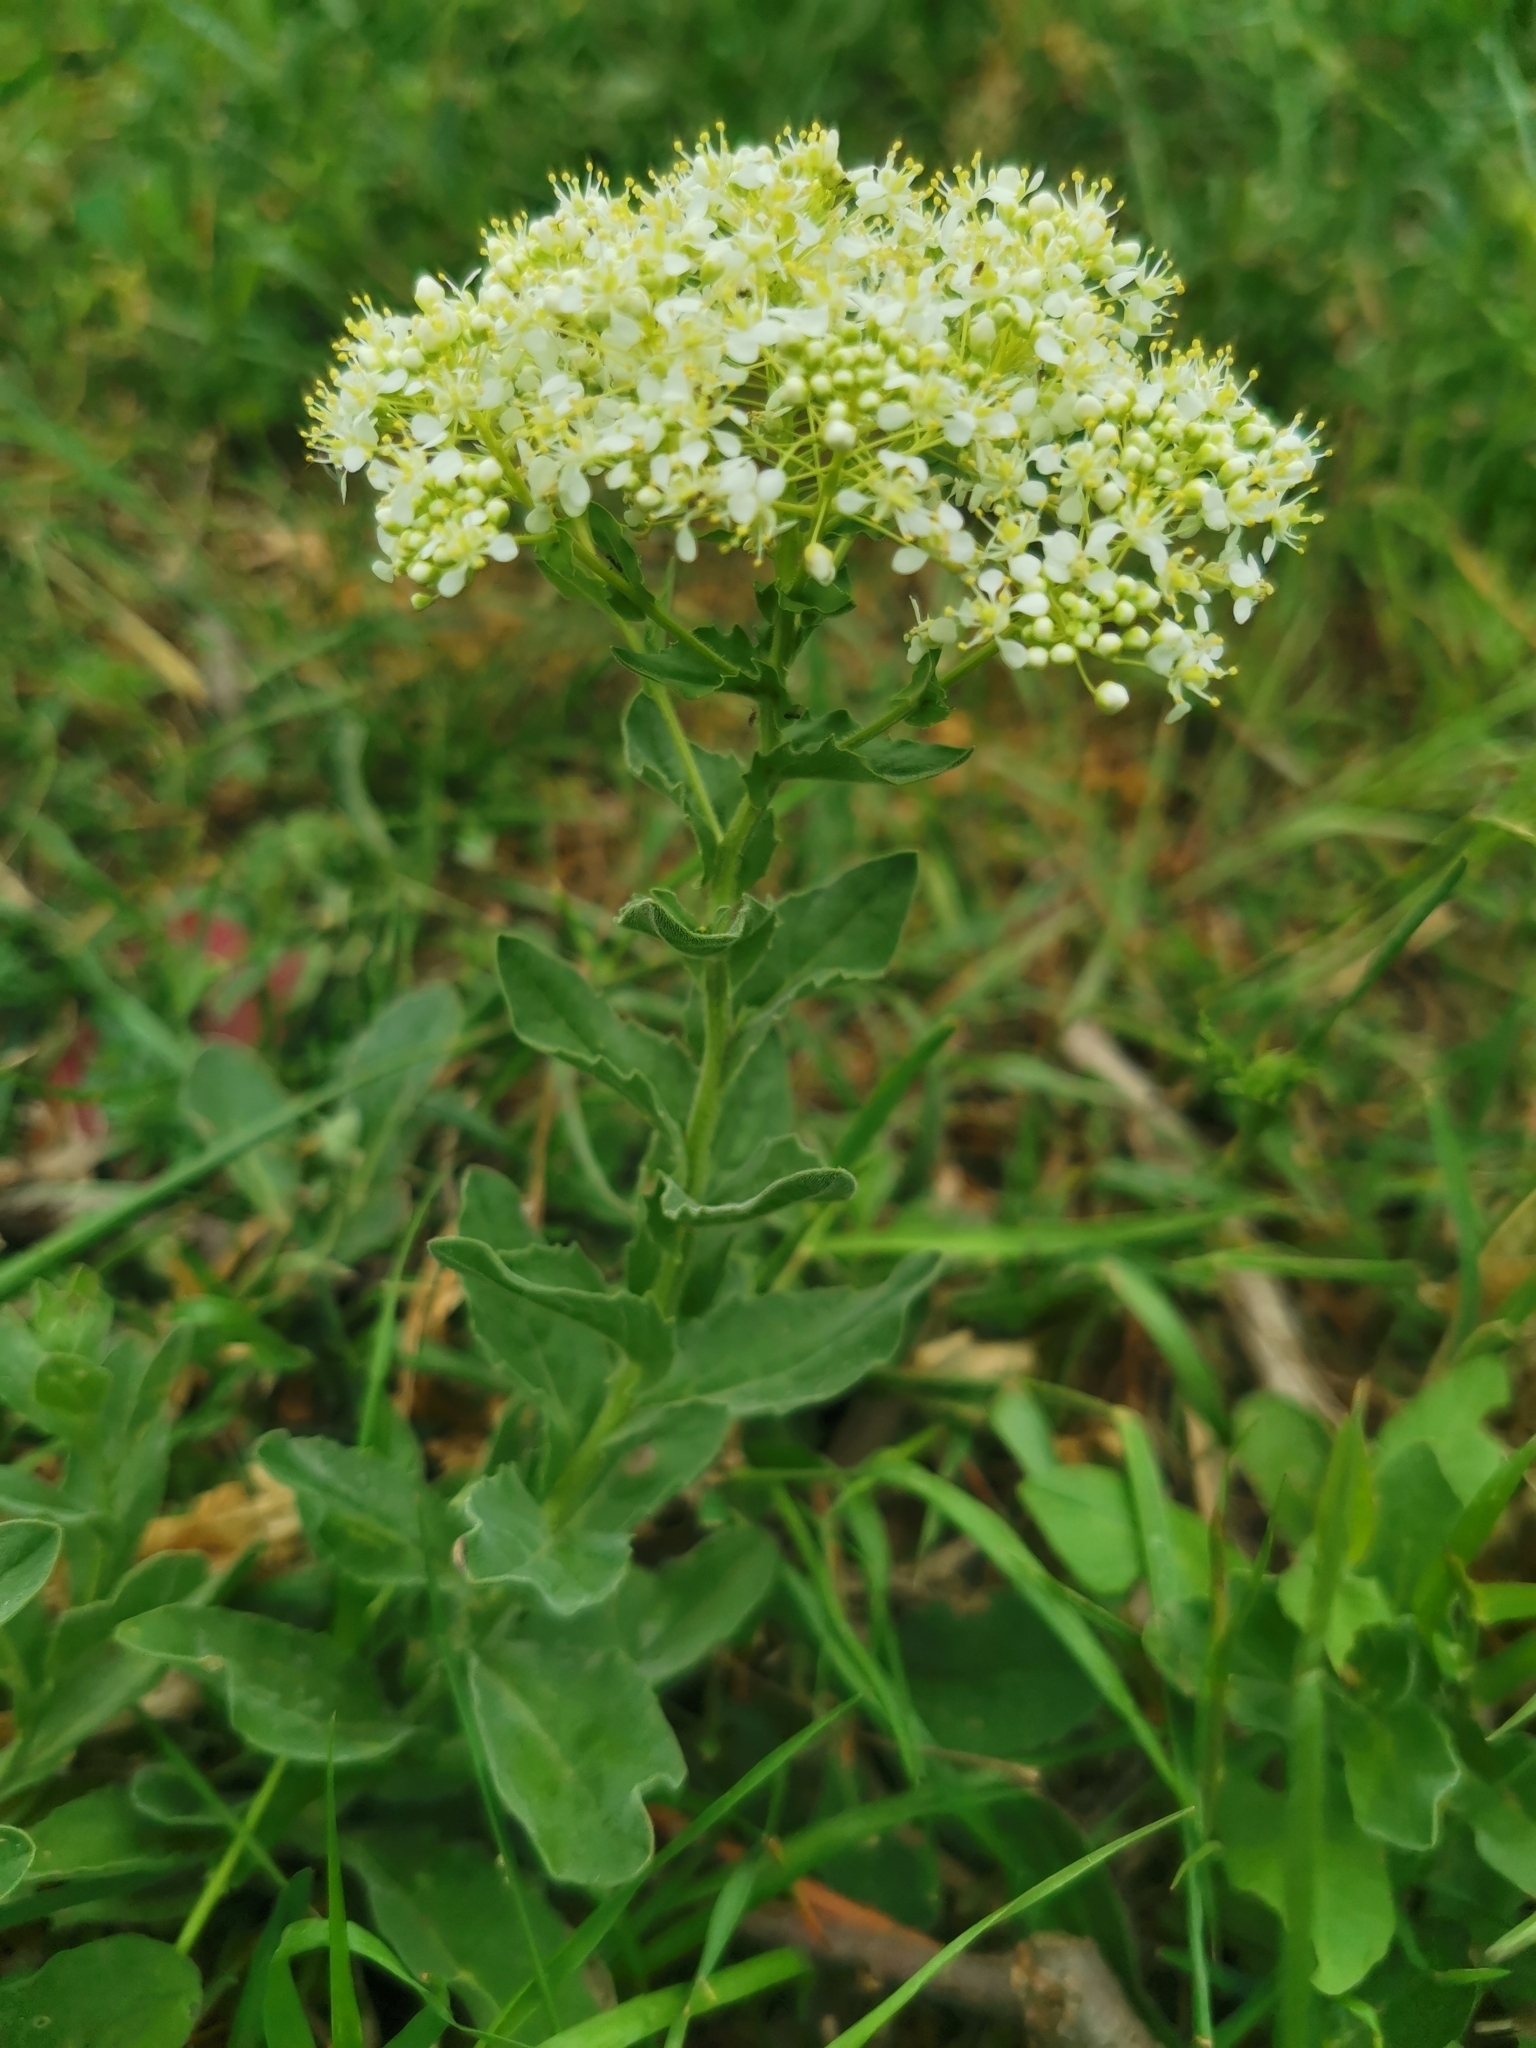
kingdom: Plantae
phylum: Tracheophyta
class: Magnoliopsida
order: Brassicales
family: Brassicaceae
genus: Lepidium
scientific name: Lepidium draba
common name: Hoary cress
